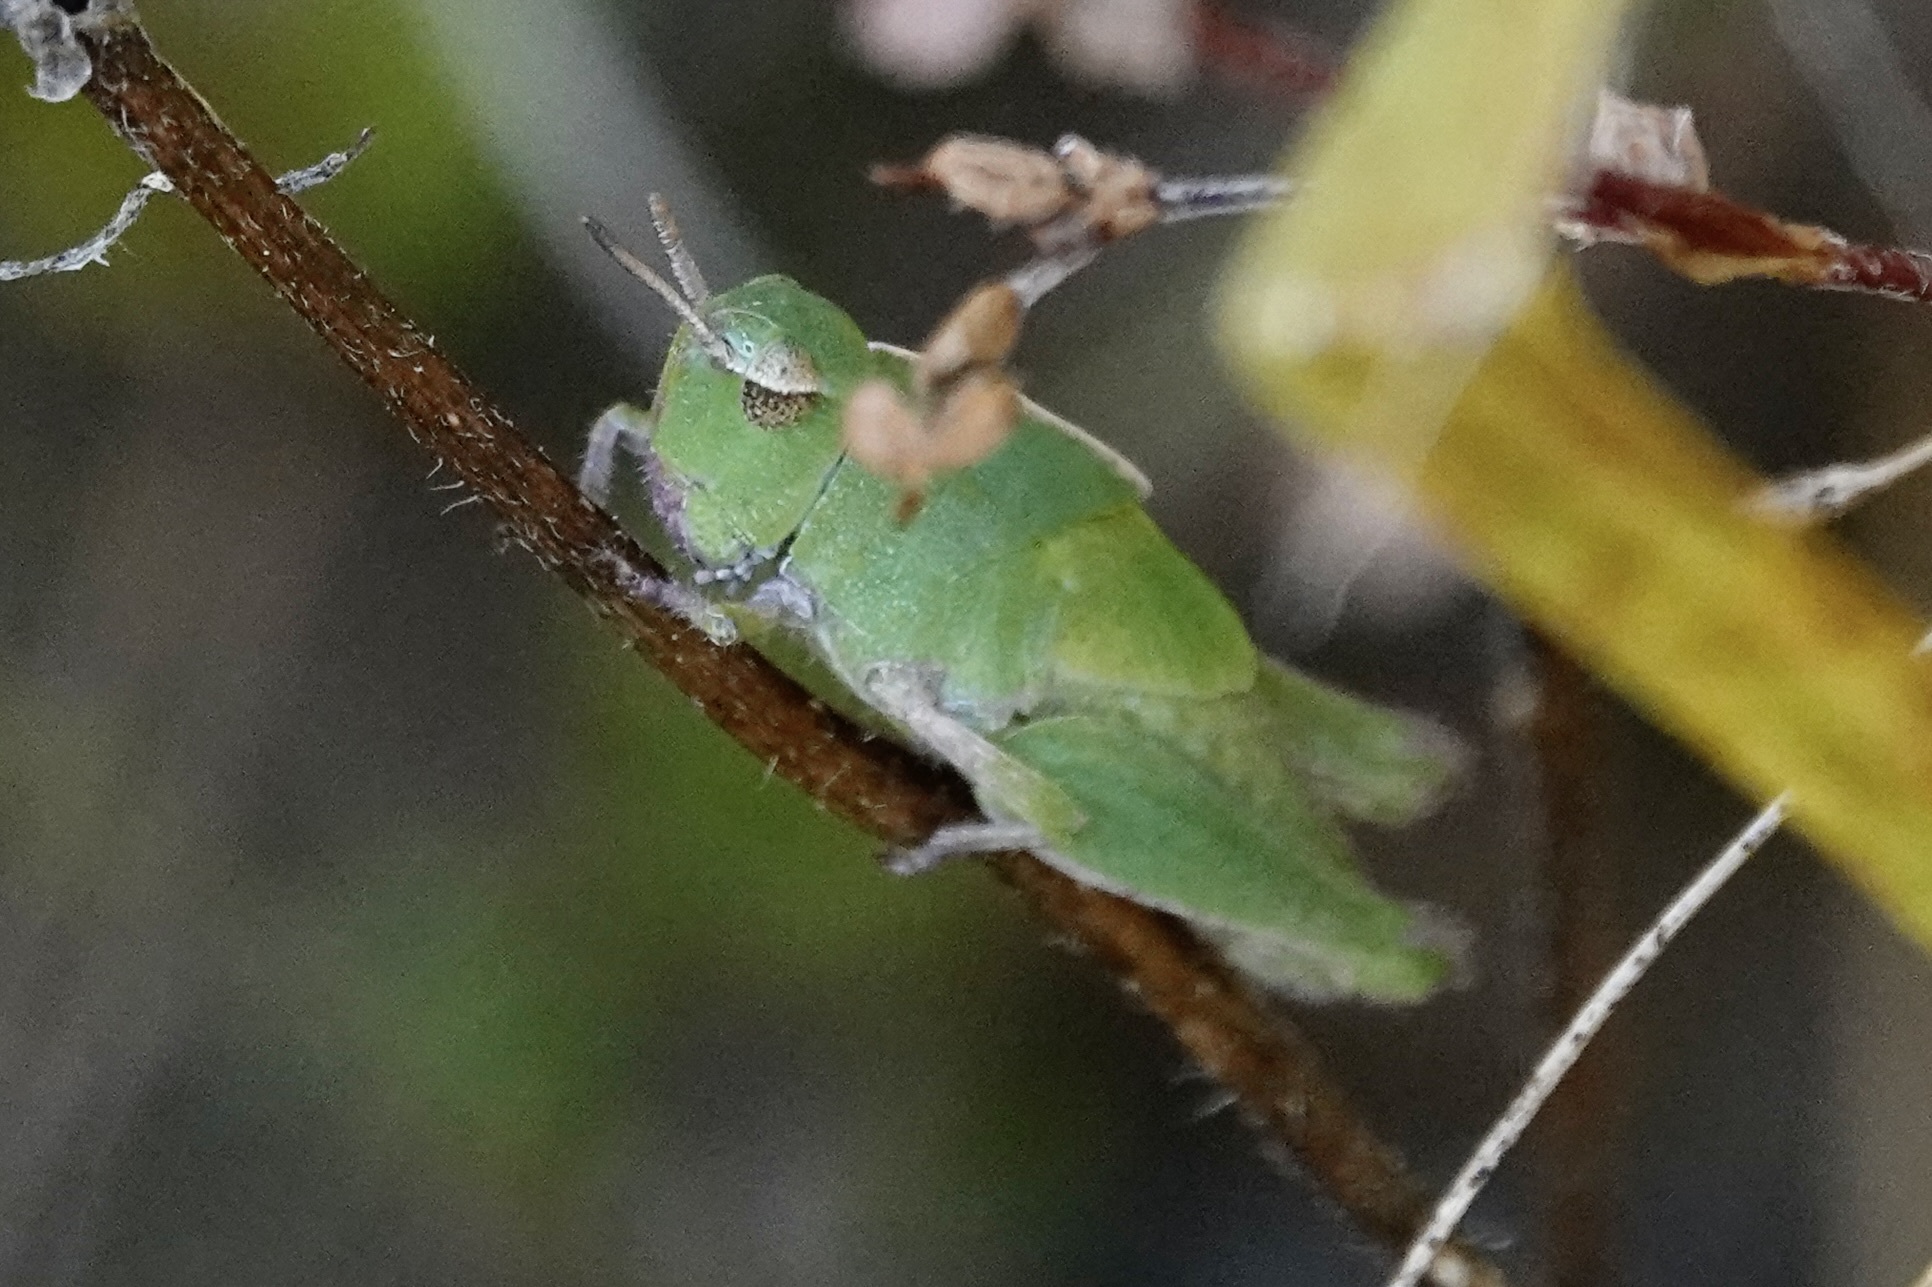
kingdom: Animalia
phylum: Arthropoda
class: Insecta
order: Orthoptera
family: Acrididae
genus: Chortophaga
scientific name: Chortophaga viridifasciata
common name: Green-striped grasshopper
